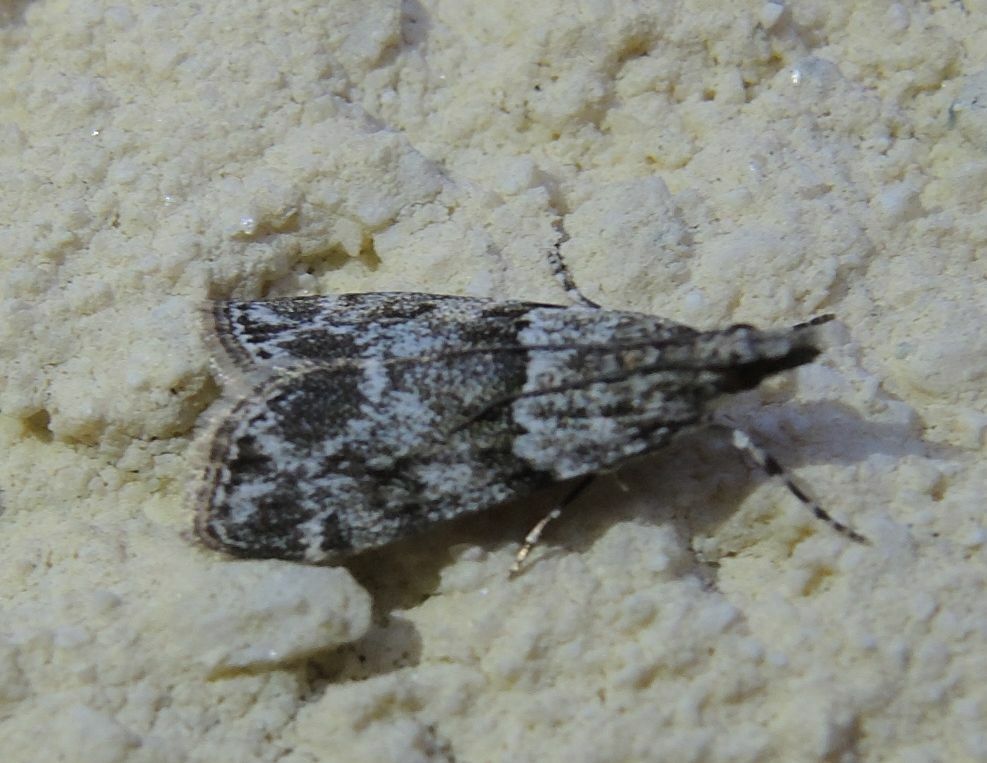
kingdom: Animalia
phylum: Arthropoda
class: Insecta
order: Lepidoptera
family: Crambidae
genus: Eudonia
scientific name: Eudonia mercurella
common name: Small grey
